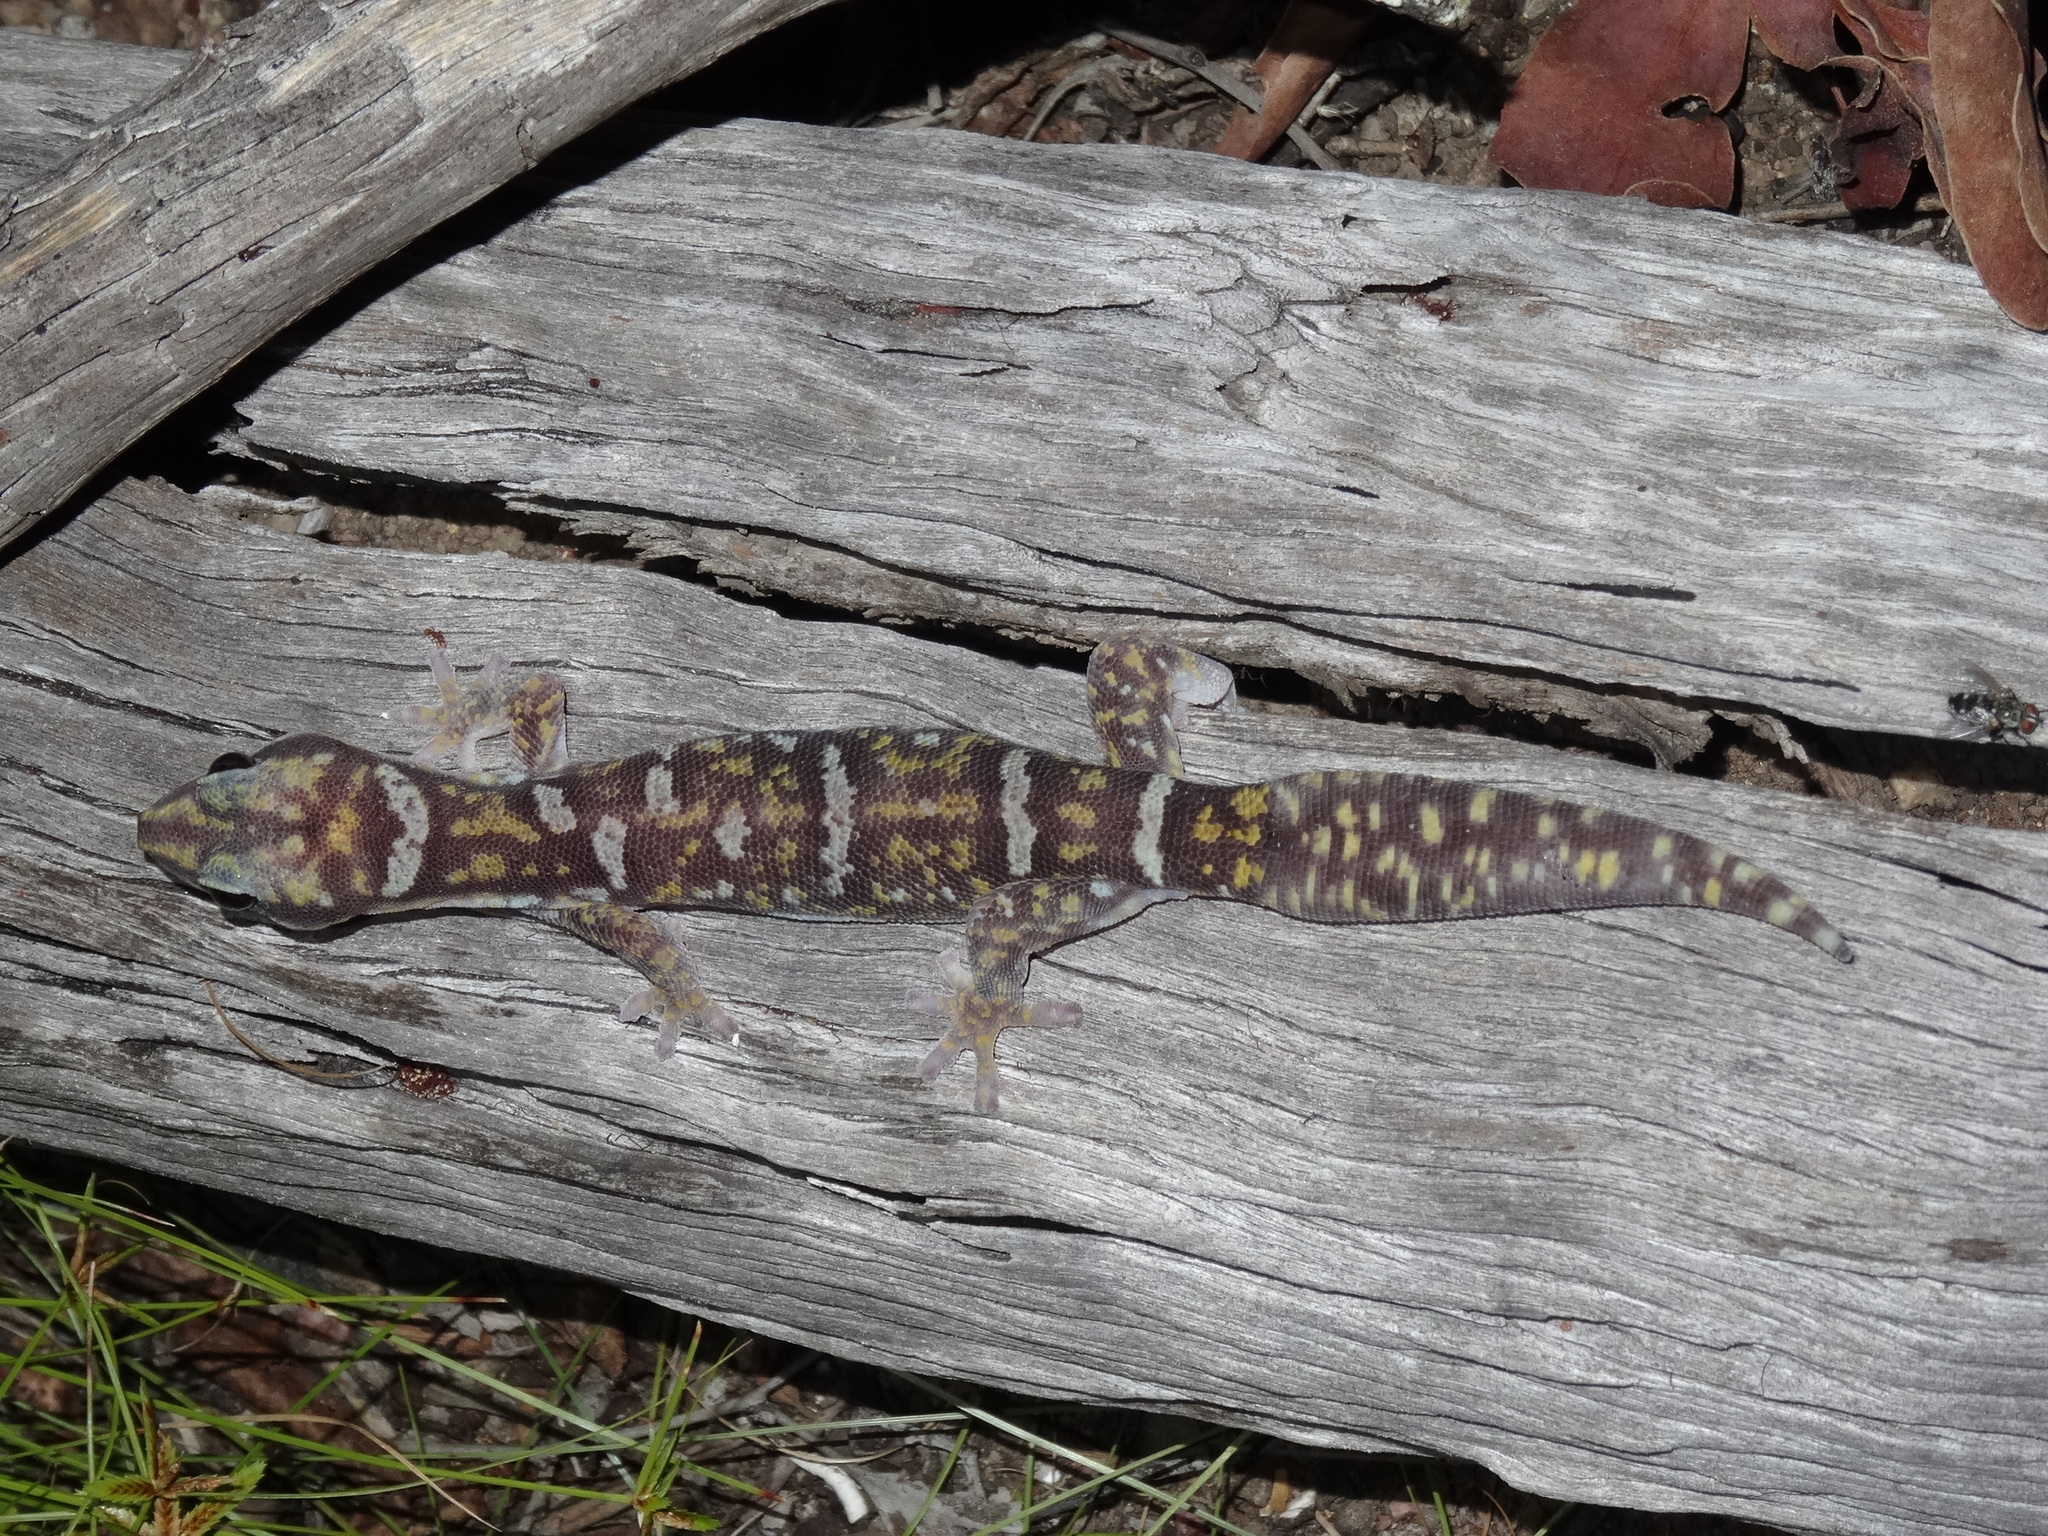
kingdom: Animalia
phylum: Chordata
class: Squamata
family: Diplodactylidae
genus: Oedura
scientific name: Oedura monilis
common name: Blotched gecko
